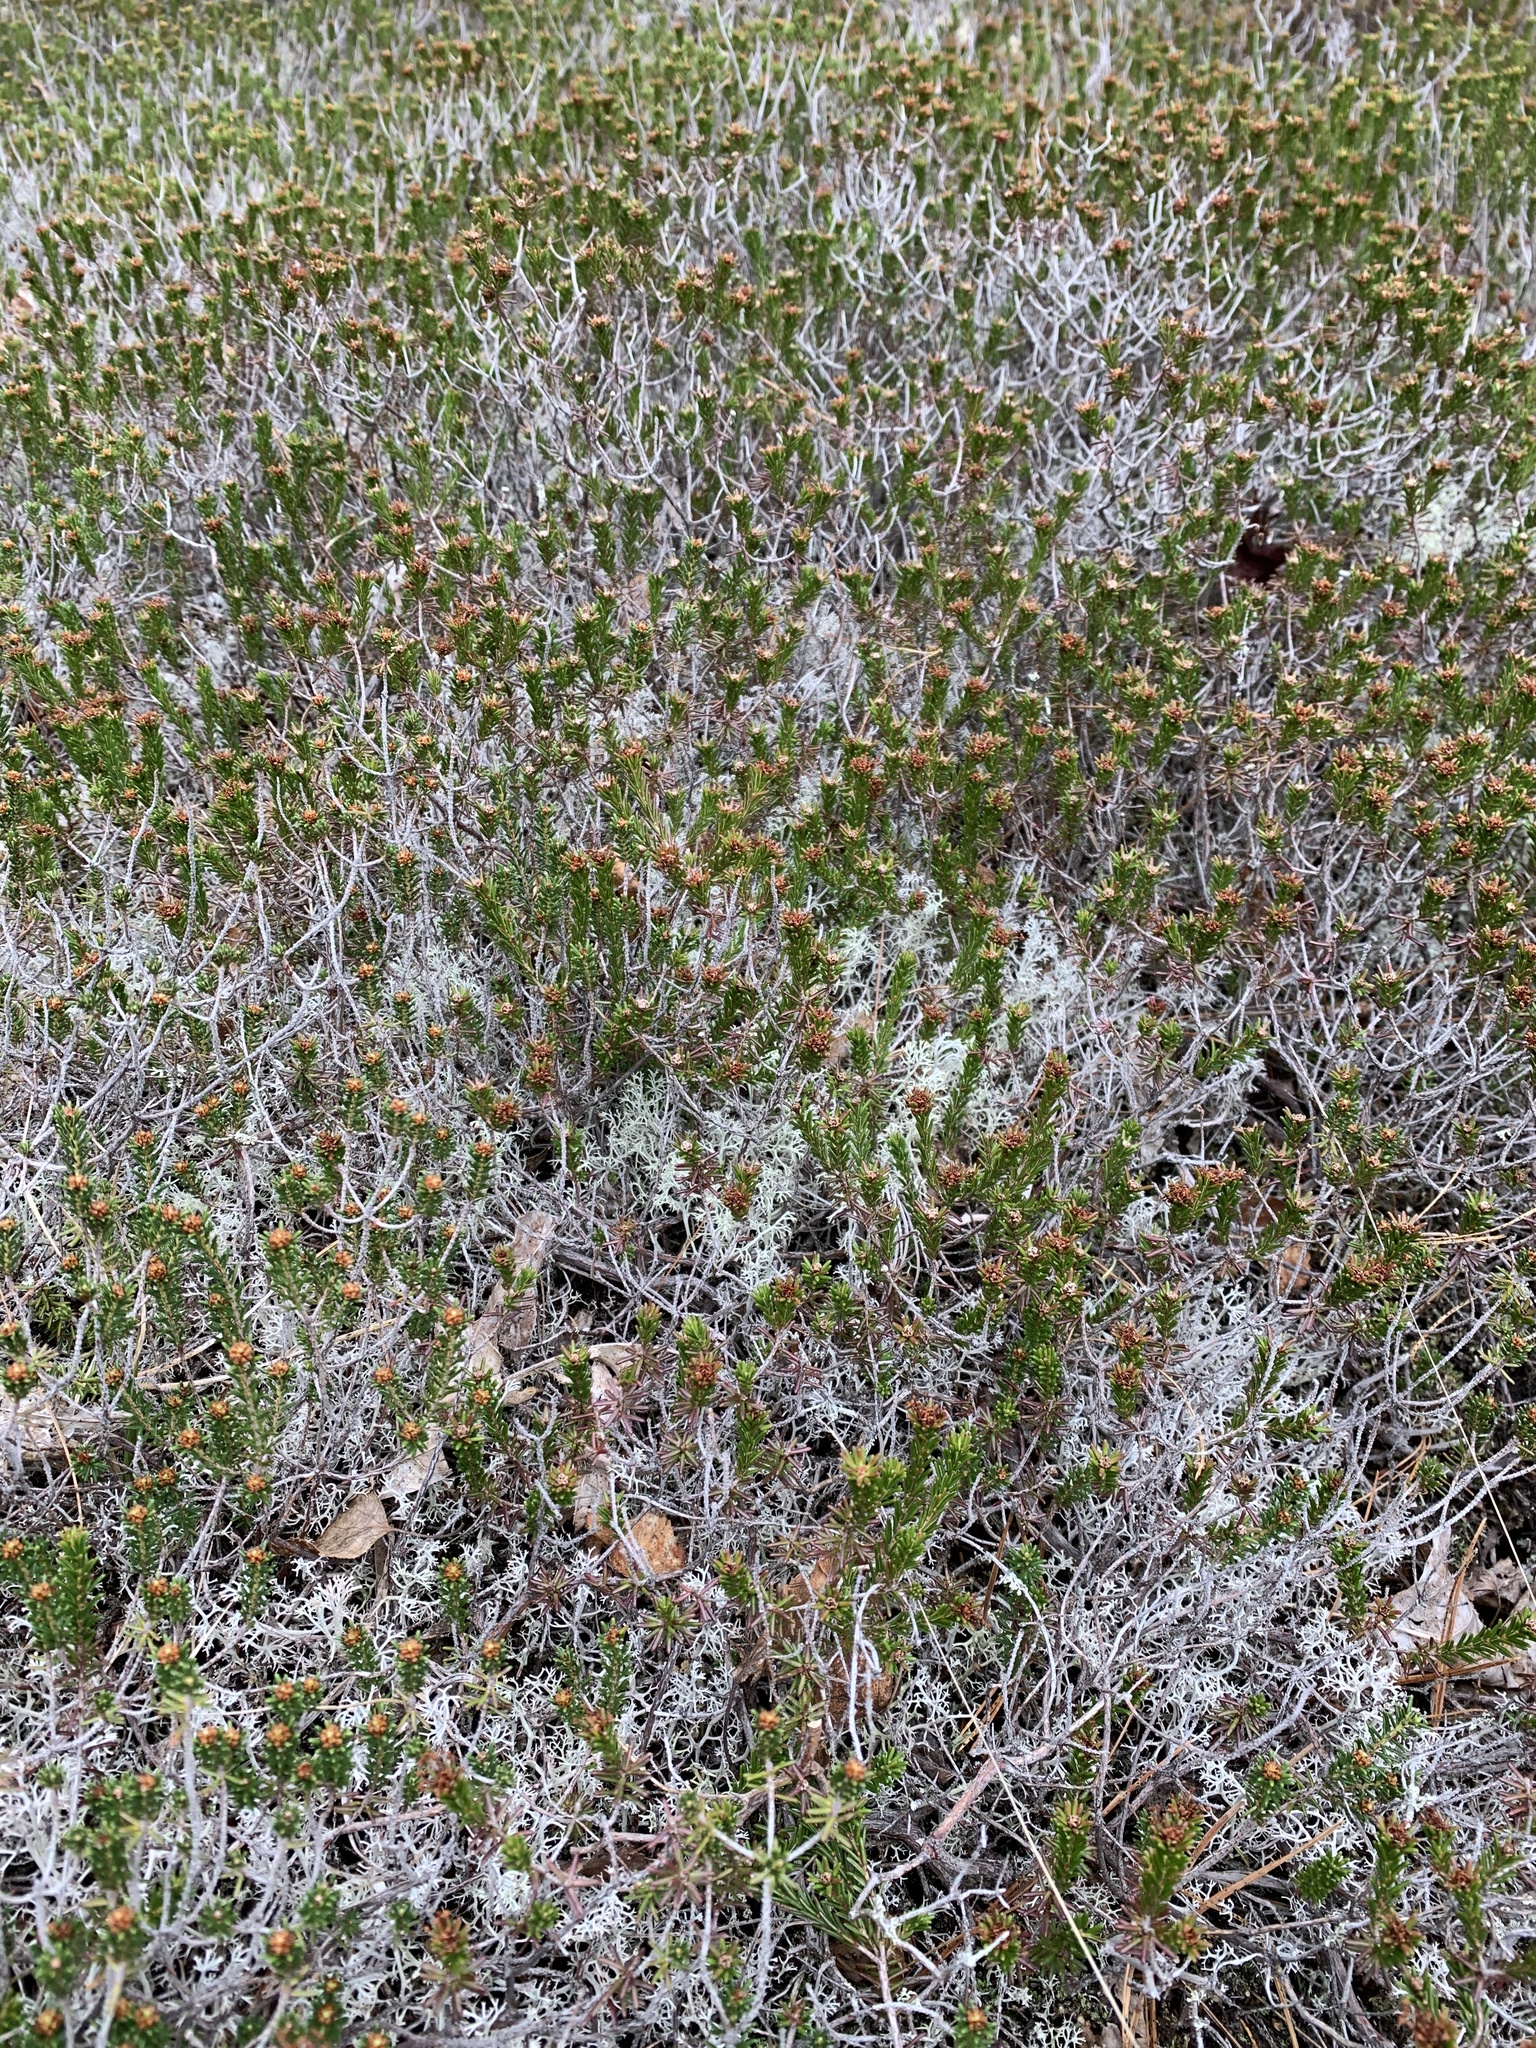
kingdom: Plantae
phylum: Tracheophyta
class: Magnoliopsida
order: Ericales
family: Ericaceae
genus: Corema
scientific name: Corema conradii
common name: Broom-crowberry
